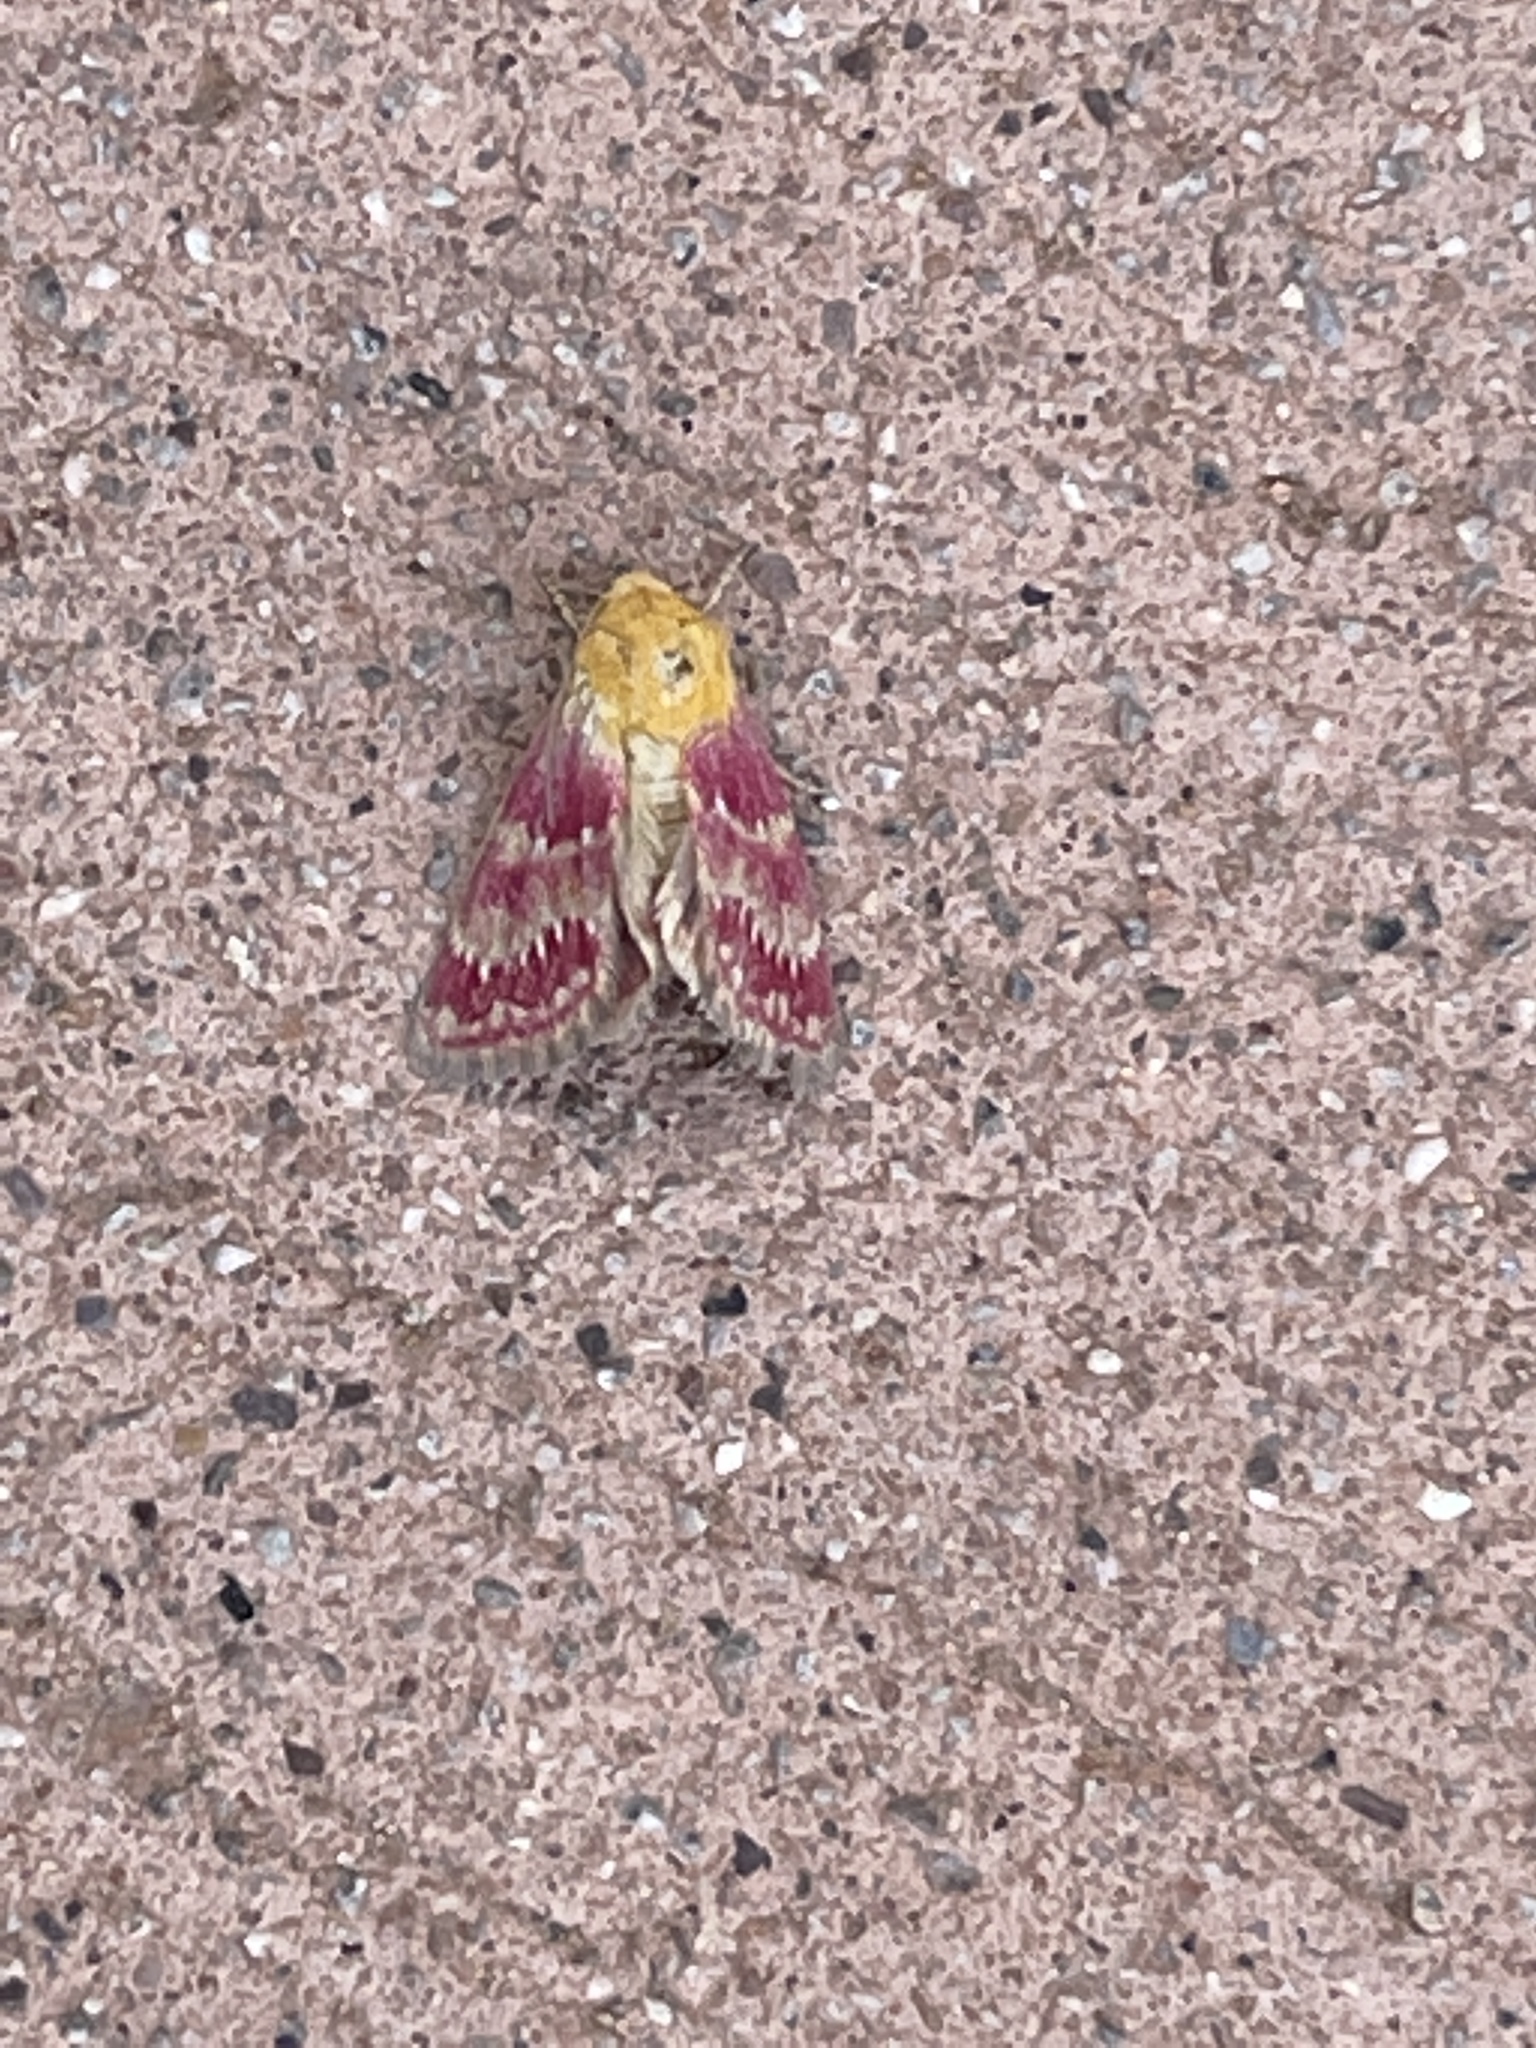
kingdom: Animalia
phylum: Arthropoda
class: Insecta
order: Lepidoptera
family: Noctuidae
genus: Schinia
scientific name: Schinia sanrafaeli
